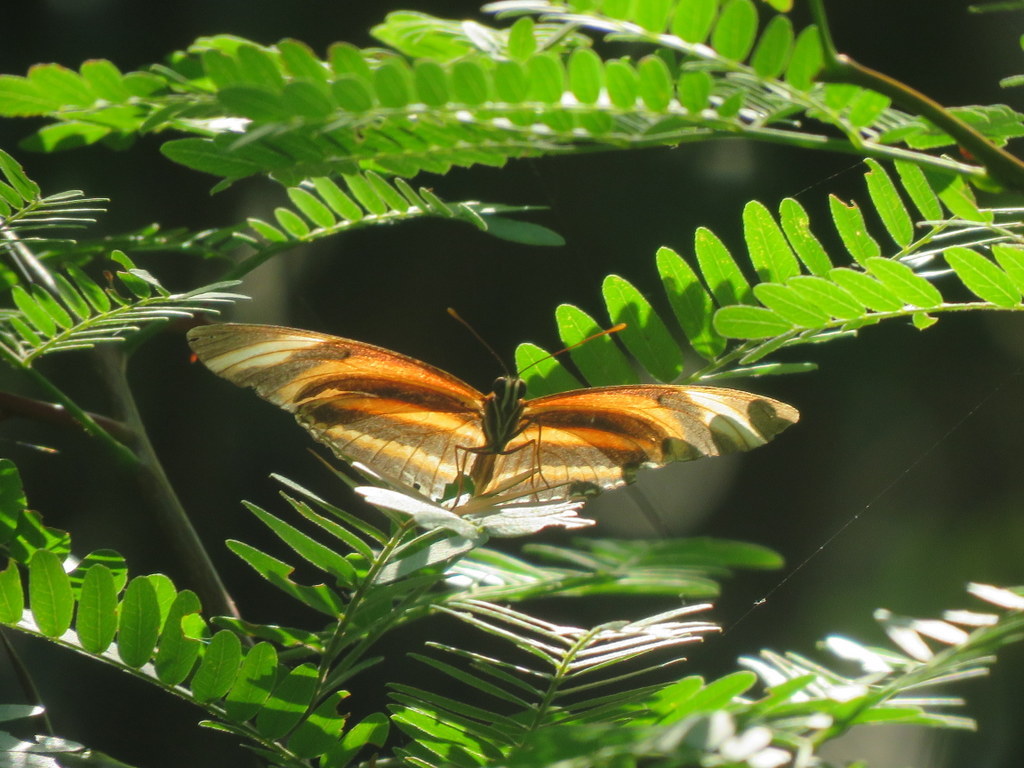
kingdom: Animalia
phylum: Arthropoda
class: Insecta
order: Lepidoptera
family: Nymphalidae
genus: Dryadula
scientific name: Dryadula phaetusa
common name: Banded orange heliconian
